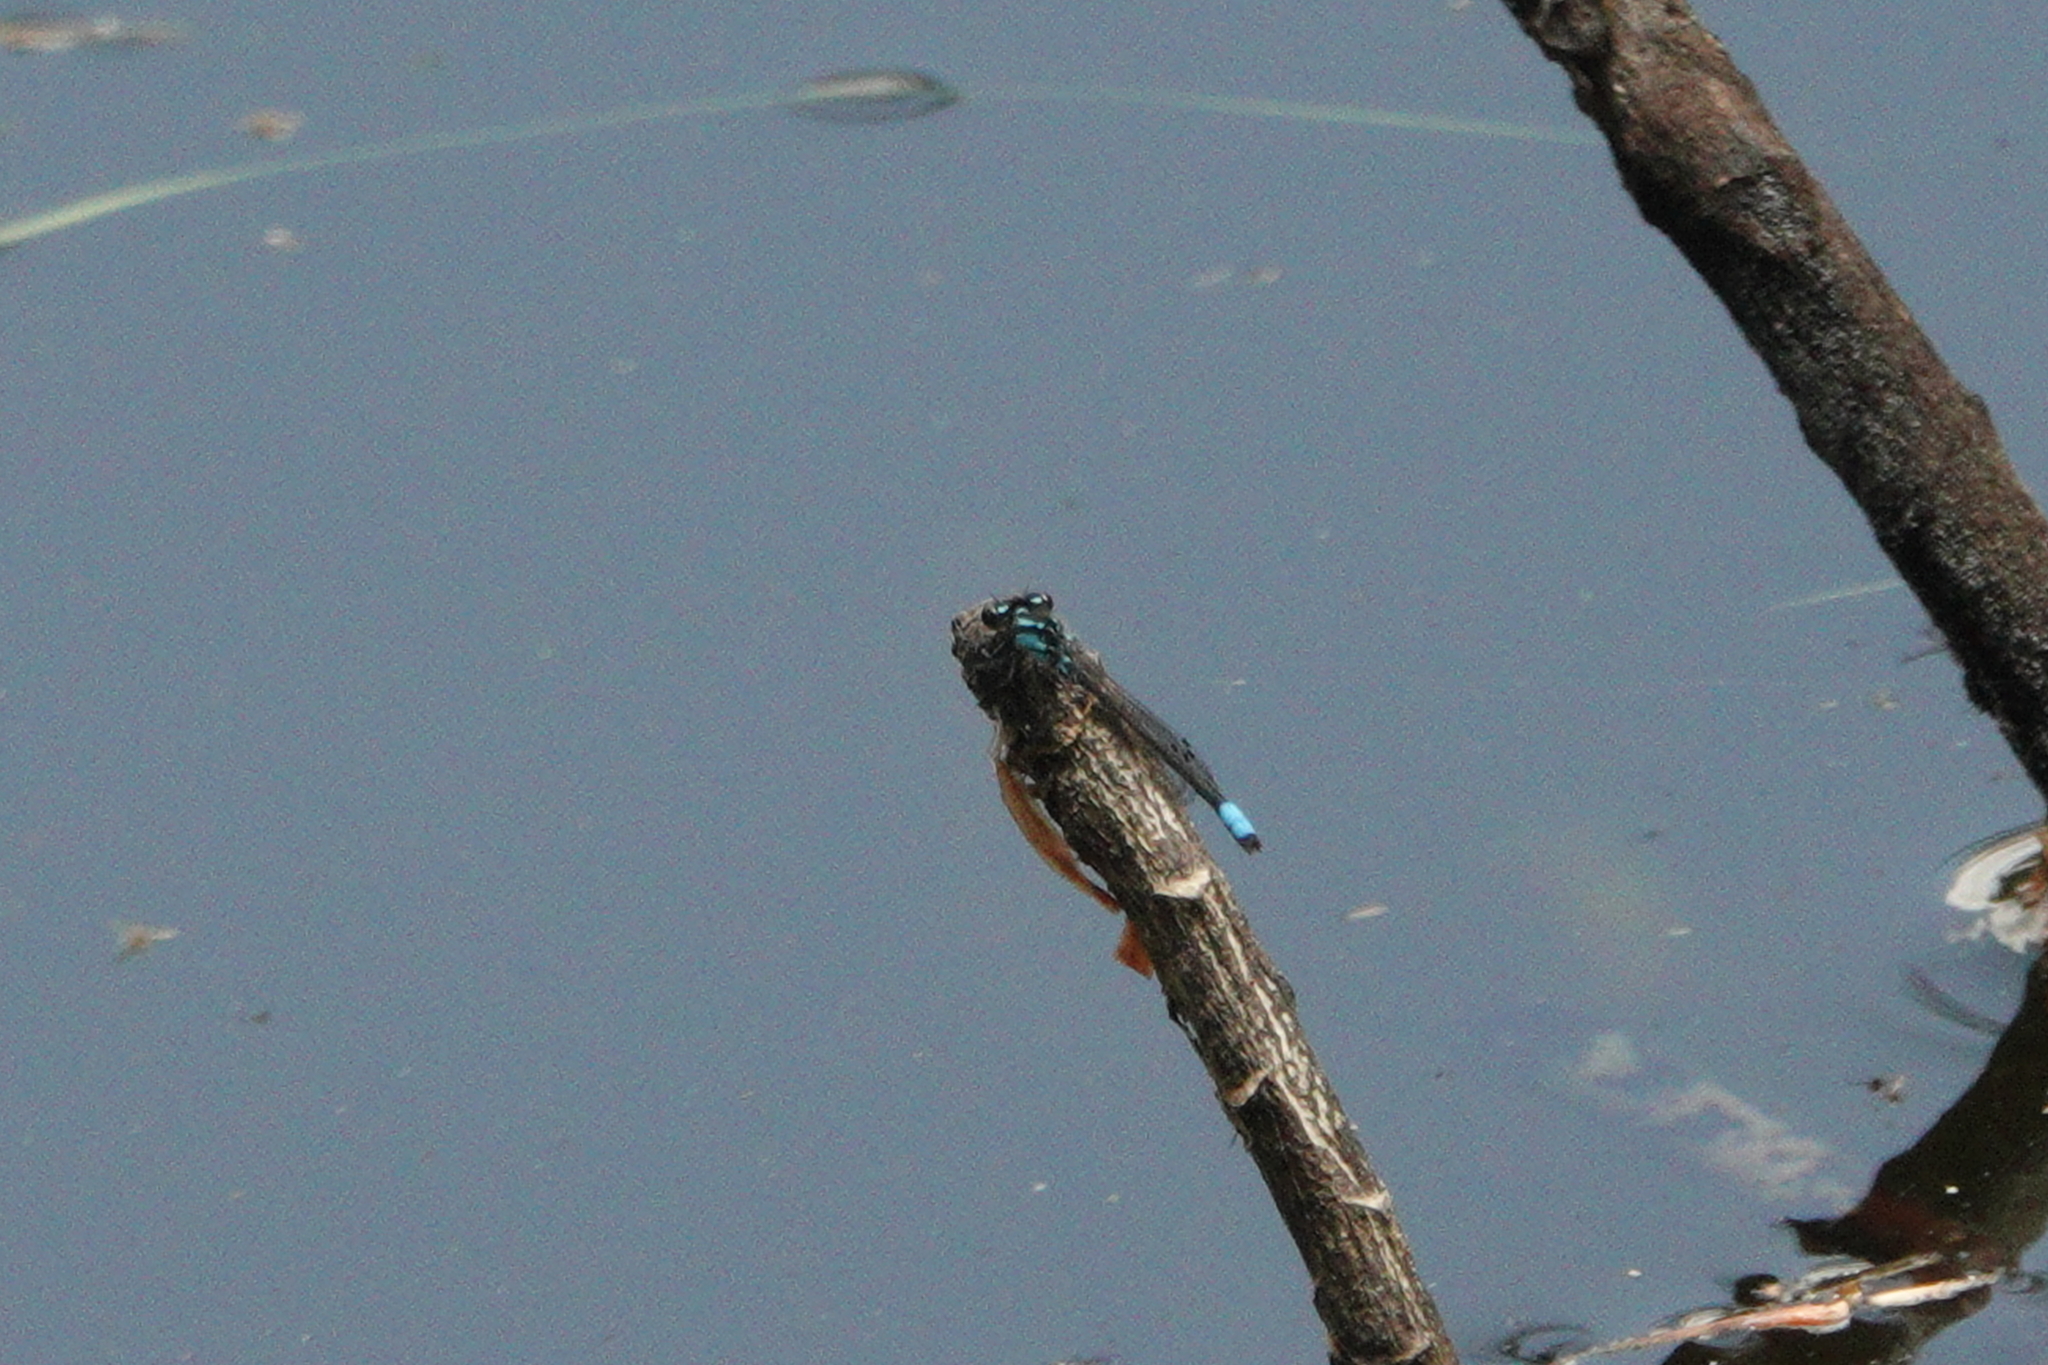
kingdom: Animalia
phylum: Arthropoda
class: Insecta
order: Odonata
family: Coenagrionidae
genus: Enallagma
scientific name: Enallagma geminatum
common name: Skimming bluet
